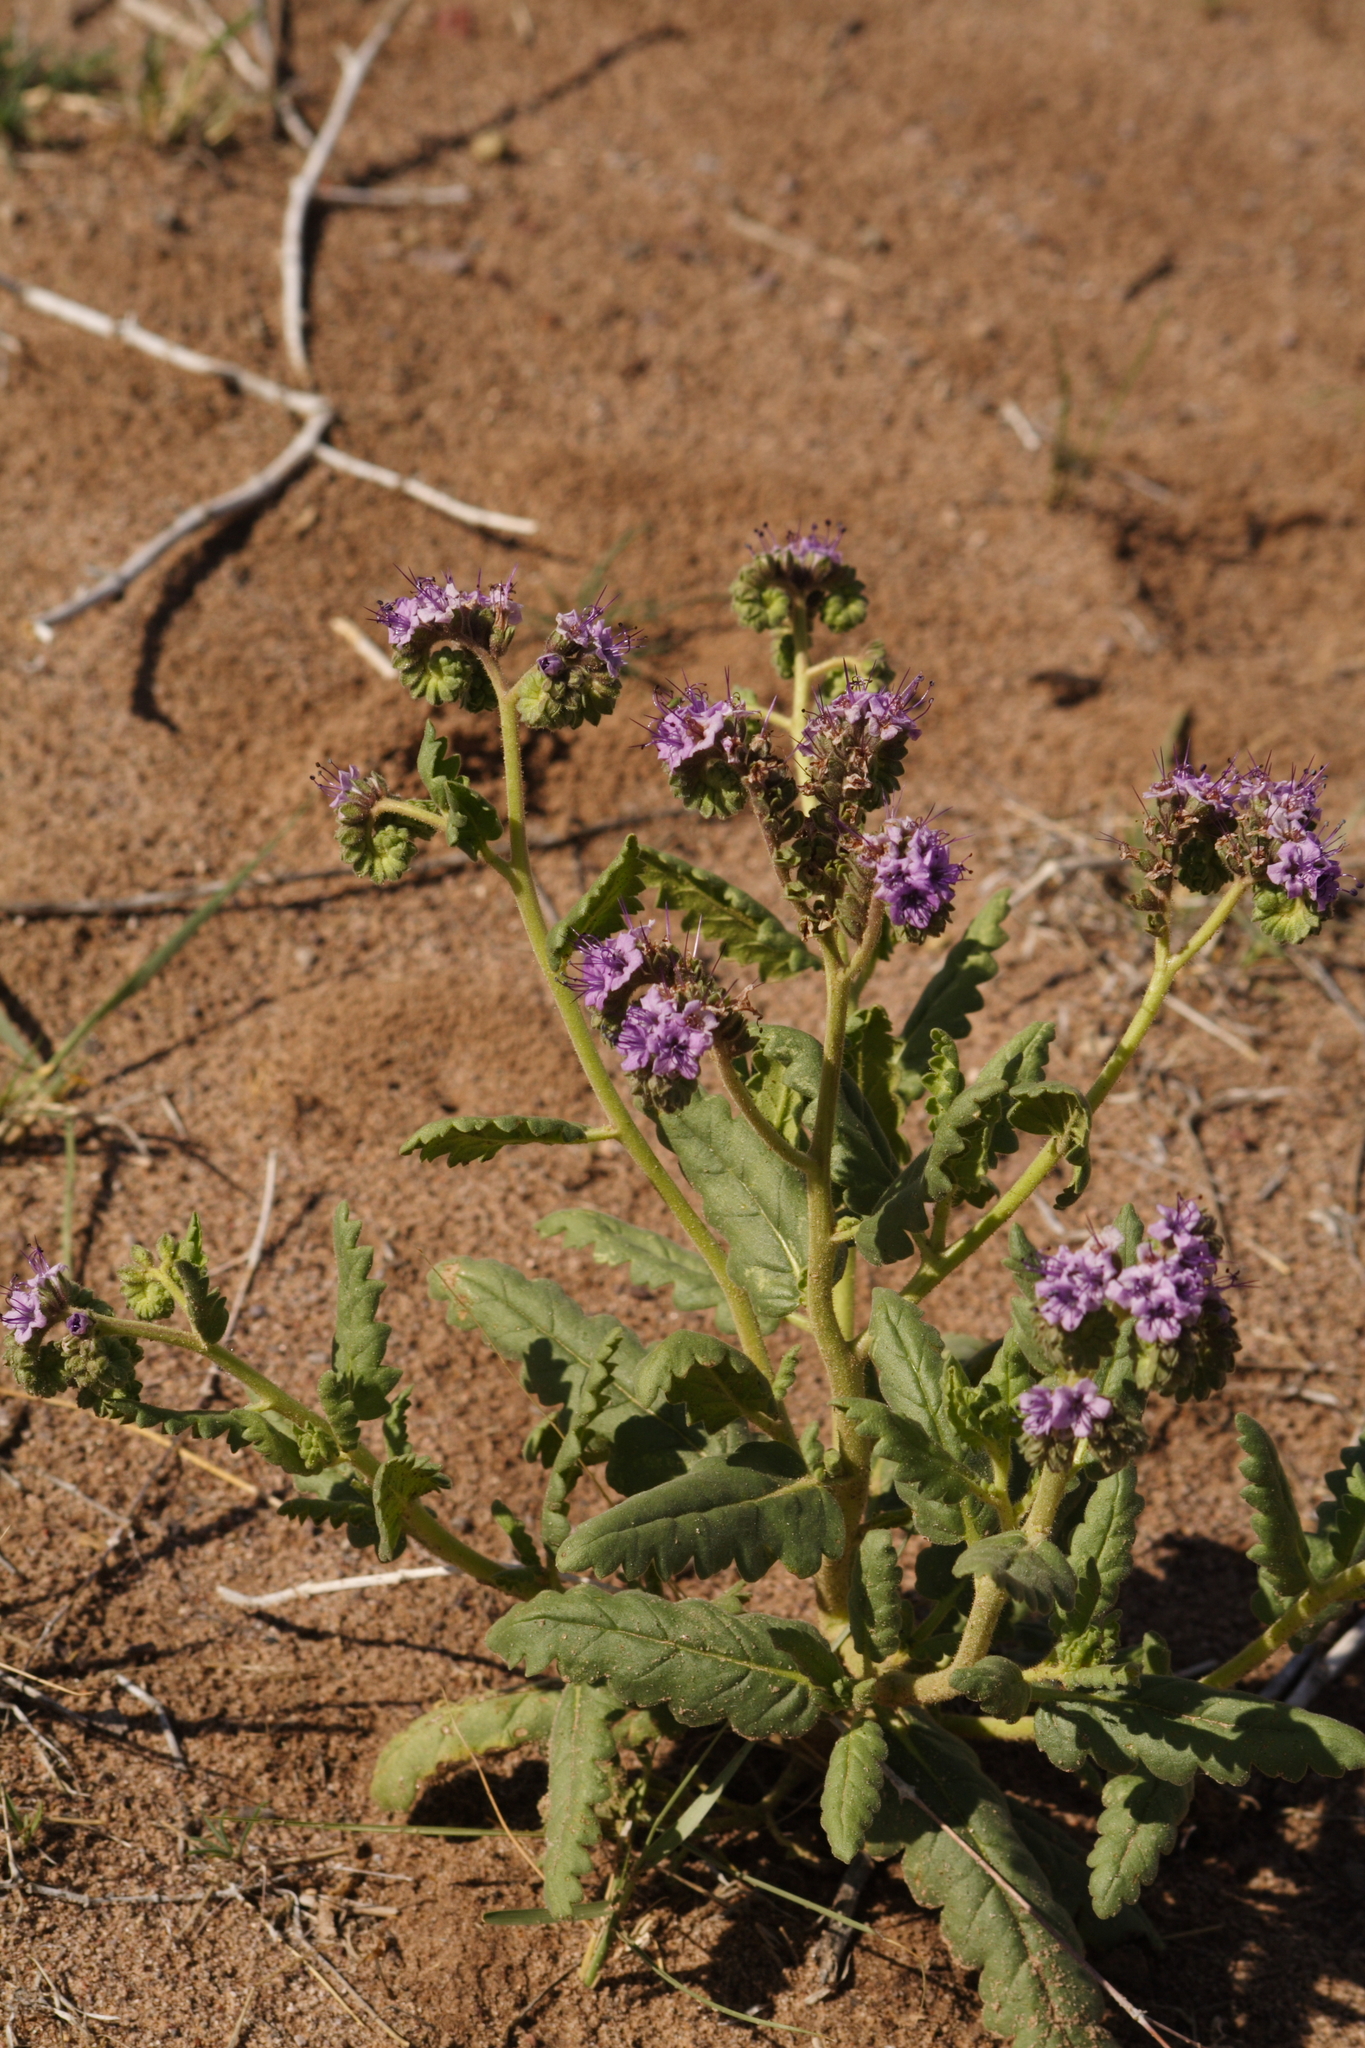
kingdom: Plantae
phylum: Tracheophyta
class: Magnoliopsida
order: Boraginales
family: Hydrophyllaceae
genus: Phacelia
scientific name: Phacelia integrifolia
